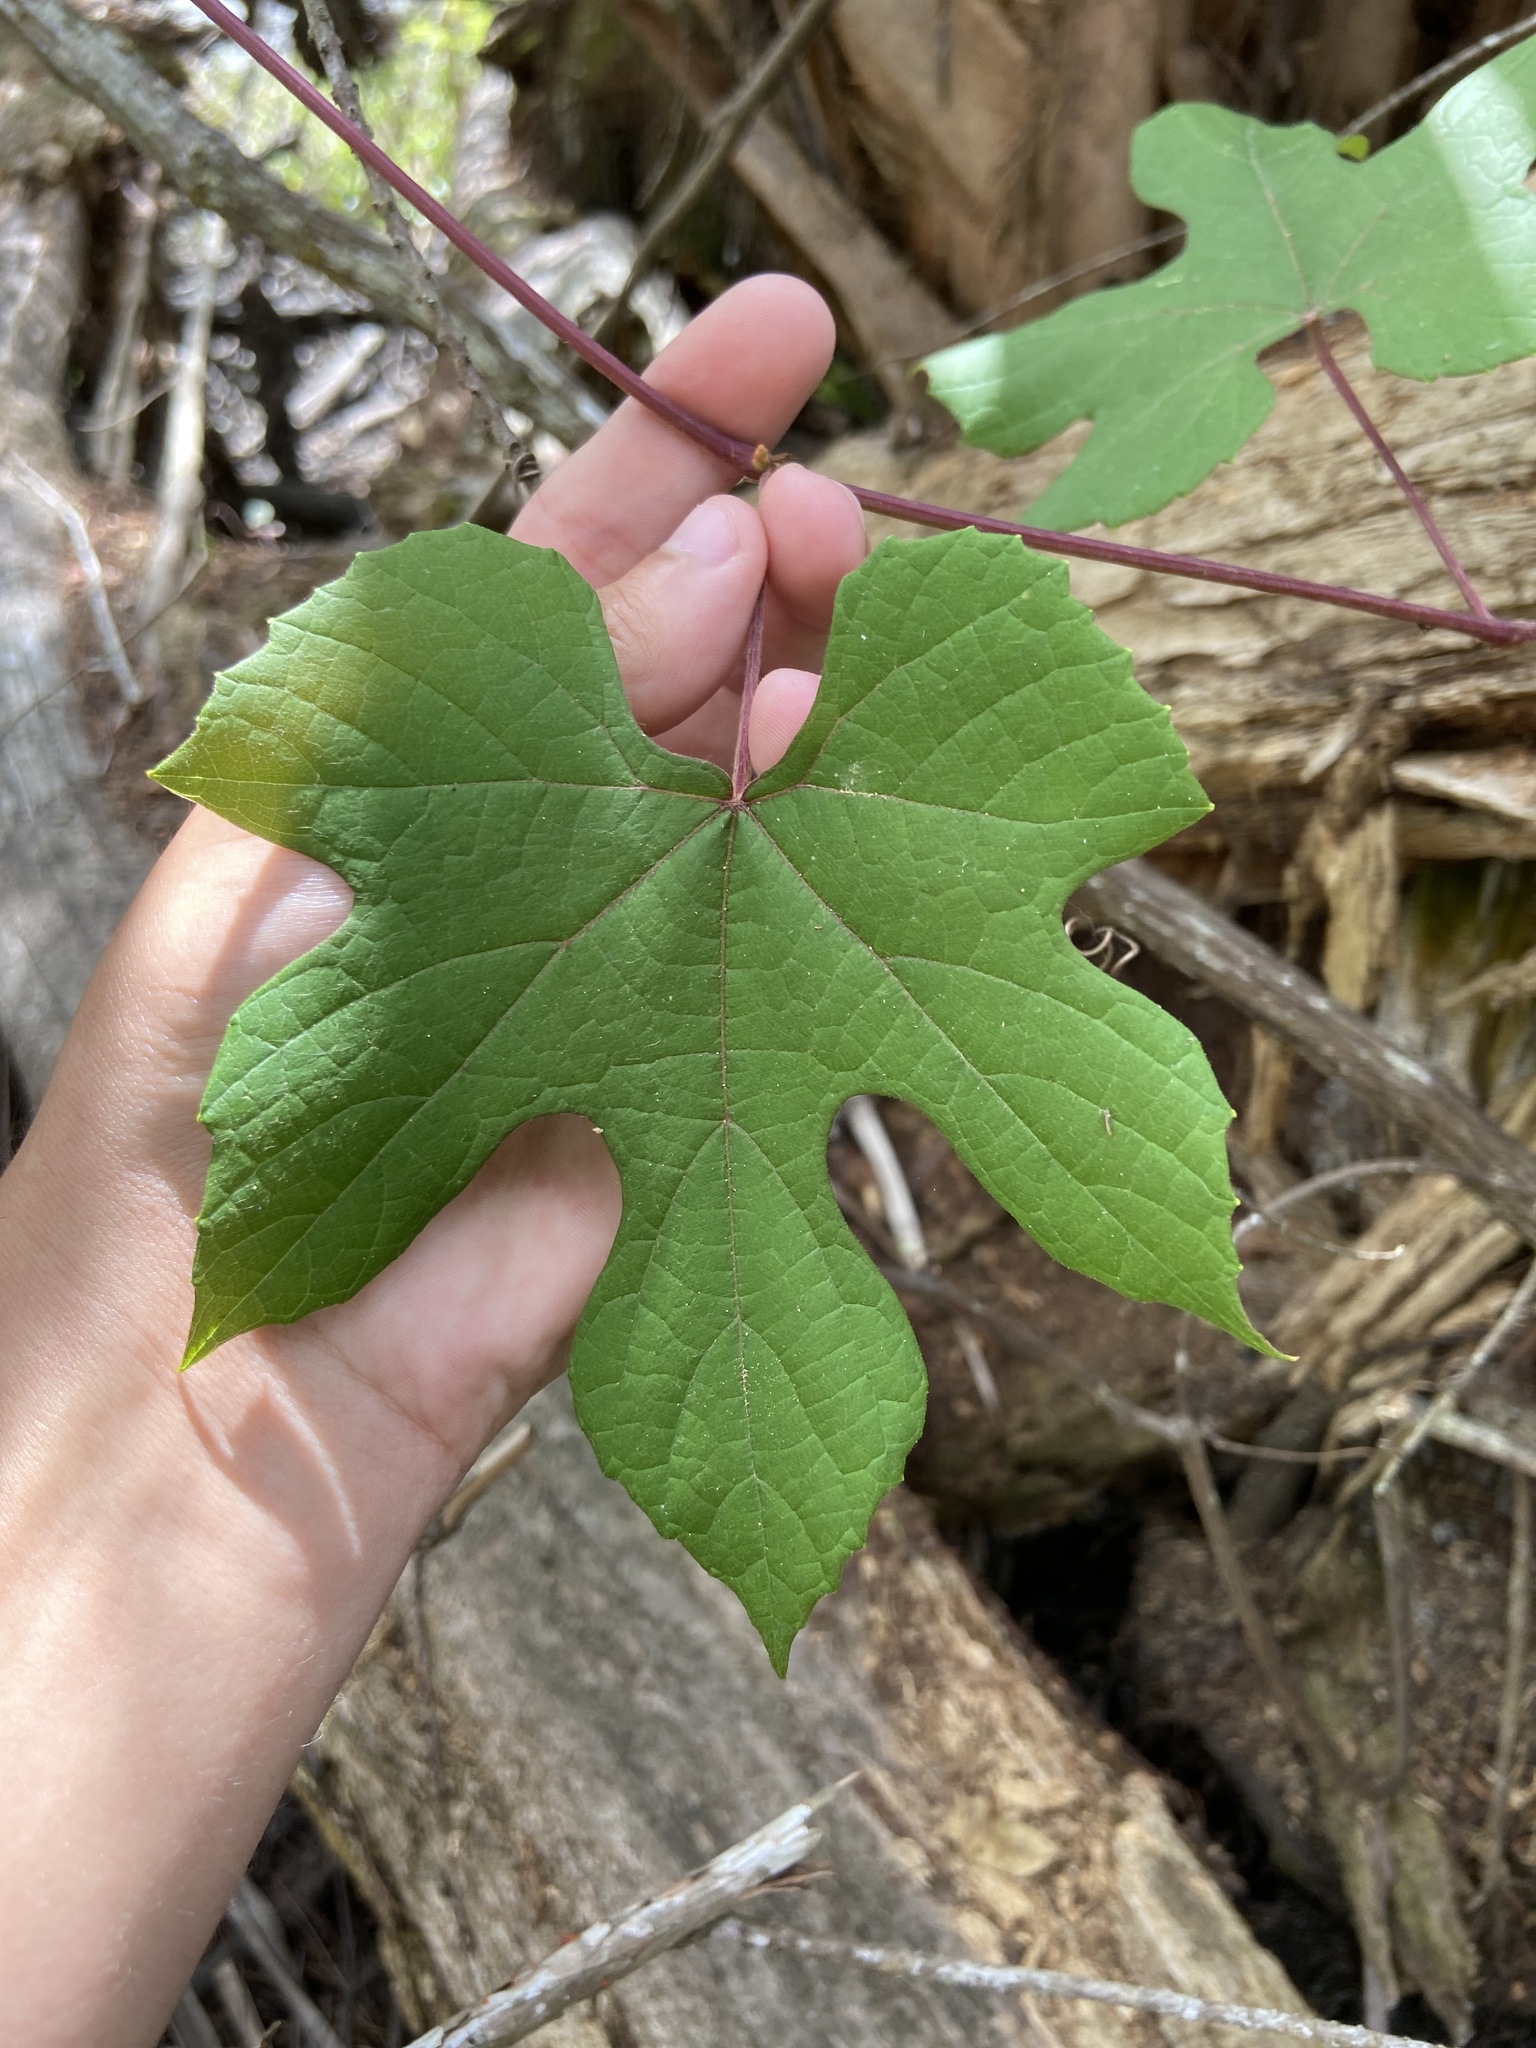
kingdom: Plantae
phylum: Tracheophyta
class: Magnoliopsida
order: Vitales
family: Vitaceae
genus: Vitis
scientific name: Vitis cinerea
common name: Ashy grape
